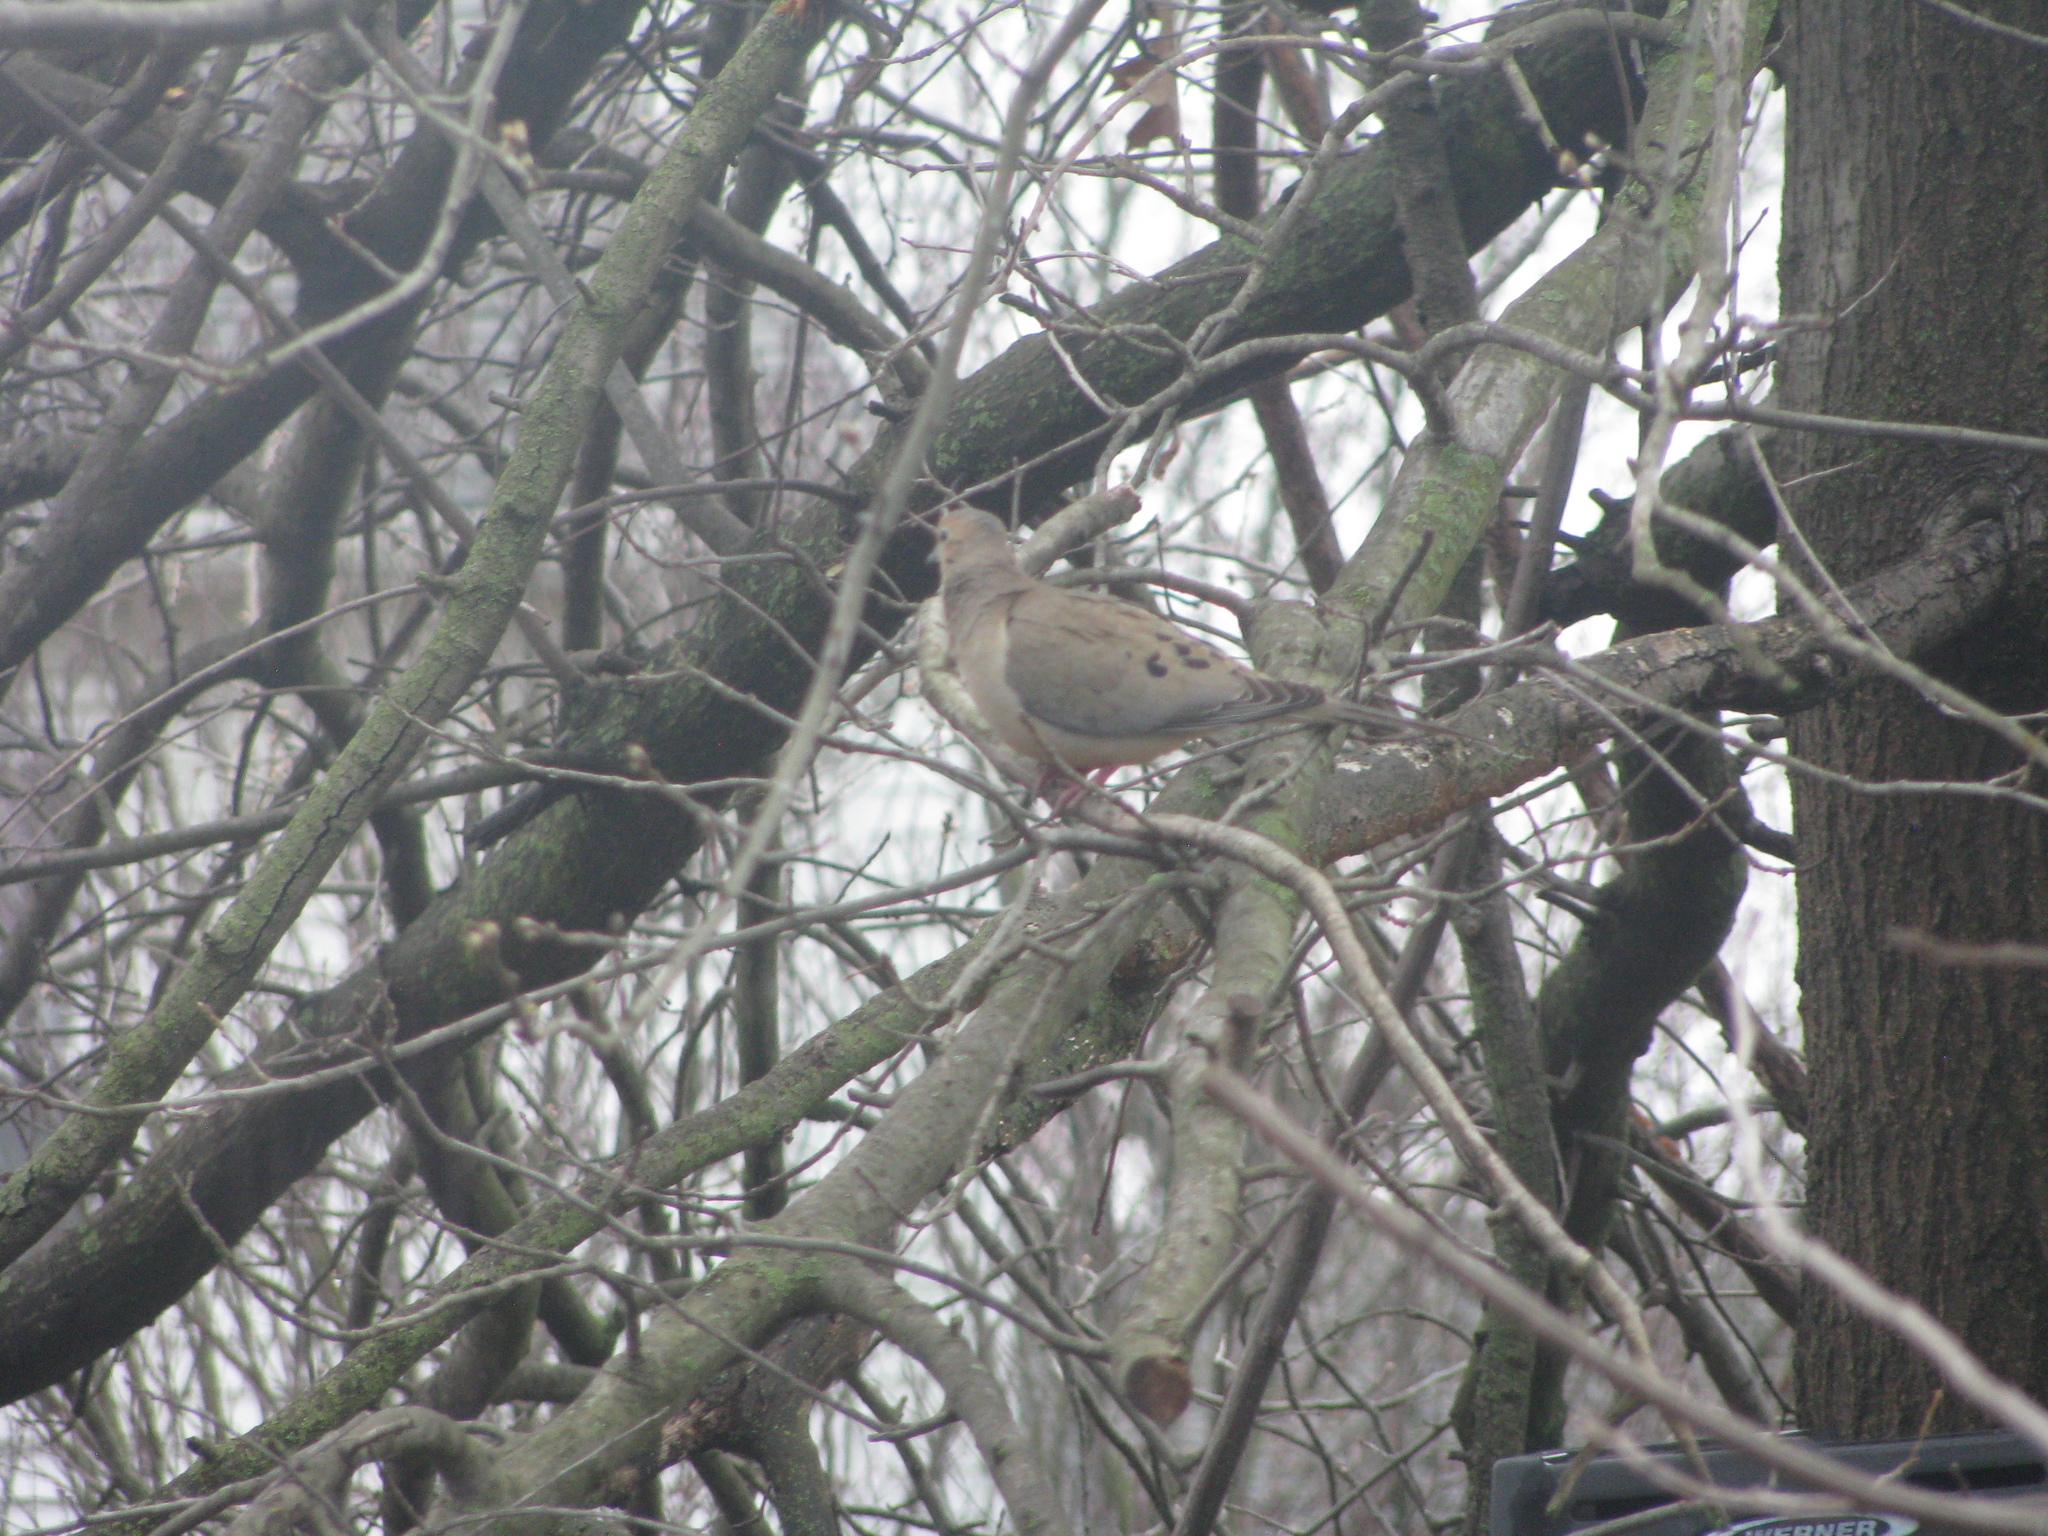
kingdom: Animalia
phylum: Chordata
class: Aves
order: Columbiformes
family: Columbidae
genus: Zenaida
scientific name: Zenaida macroura
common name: Mourning dove
